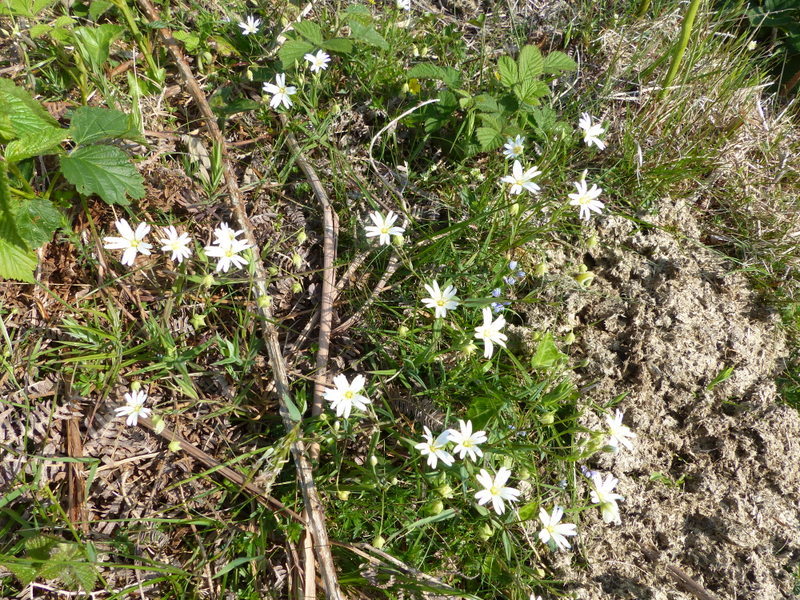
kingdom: Plantae
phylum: Tracheophyta
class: Magnoliopsida
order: Caryophyllales
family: Caryophyllaceae
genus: Rabelera
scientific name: Rabelera holostea
